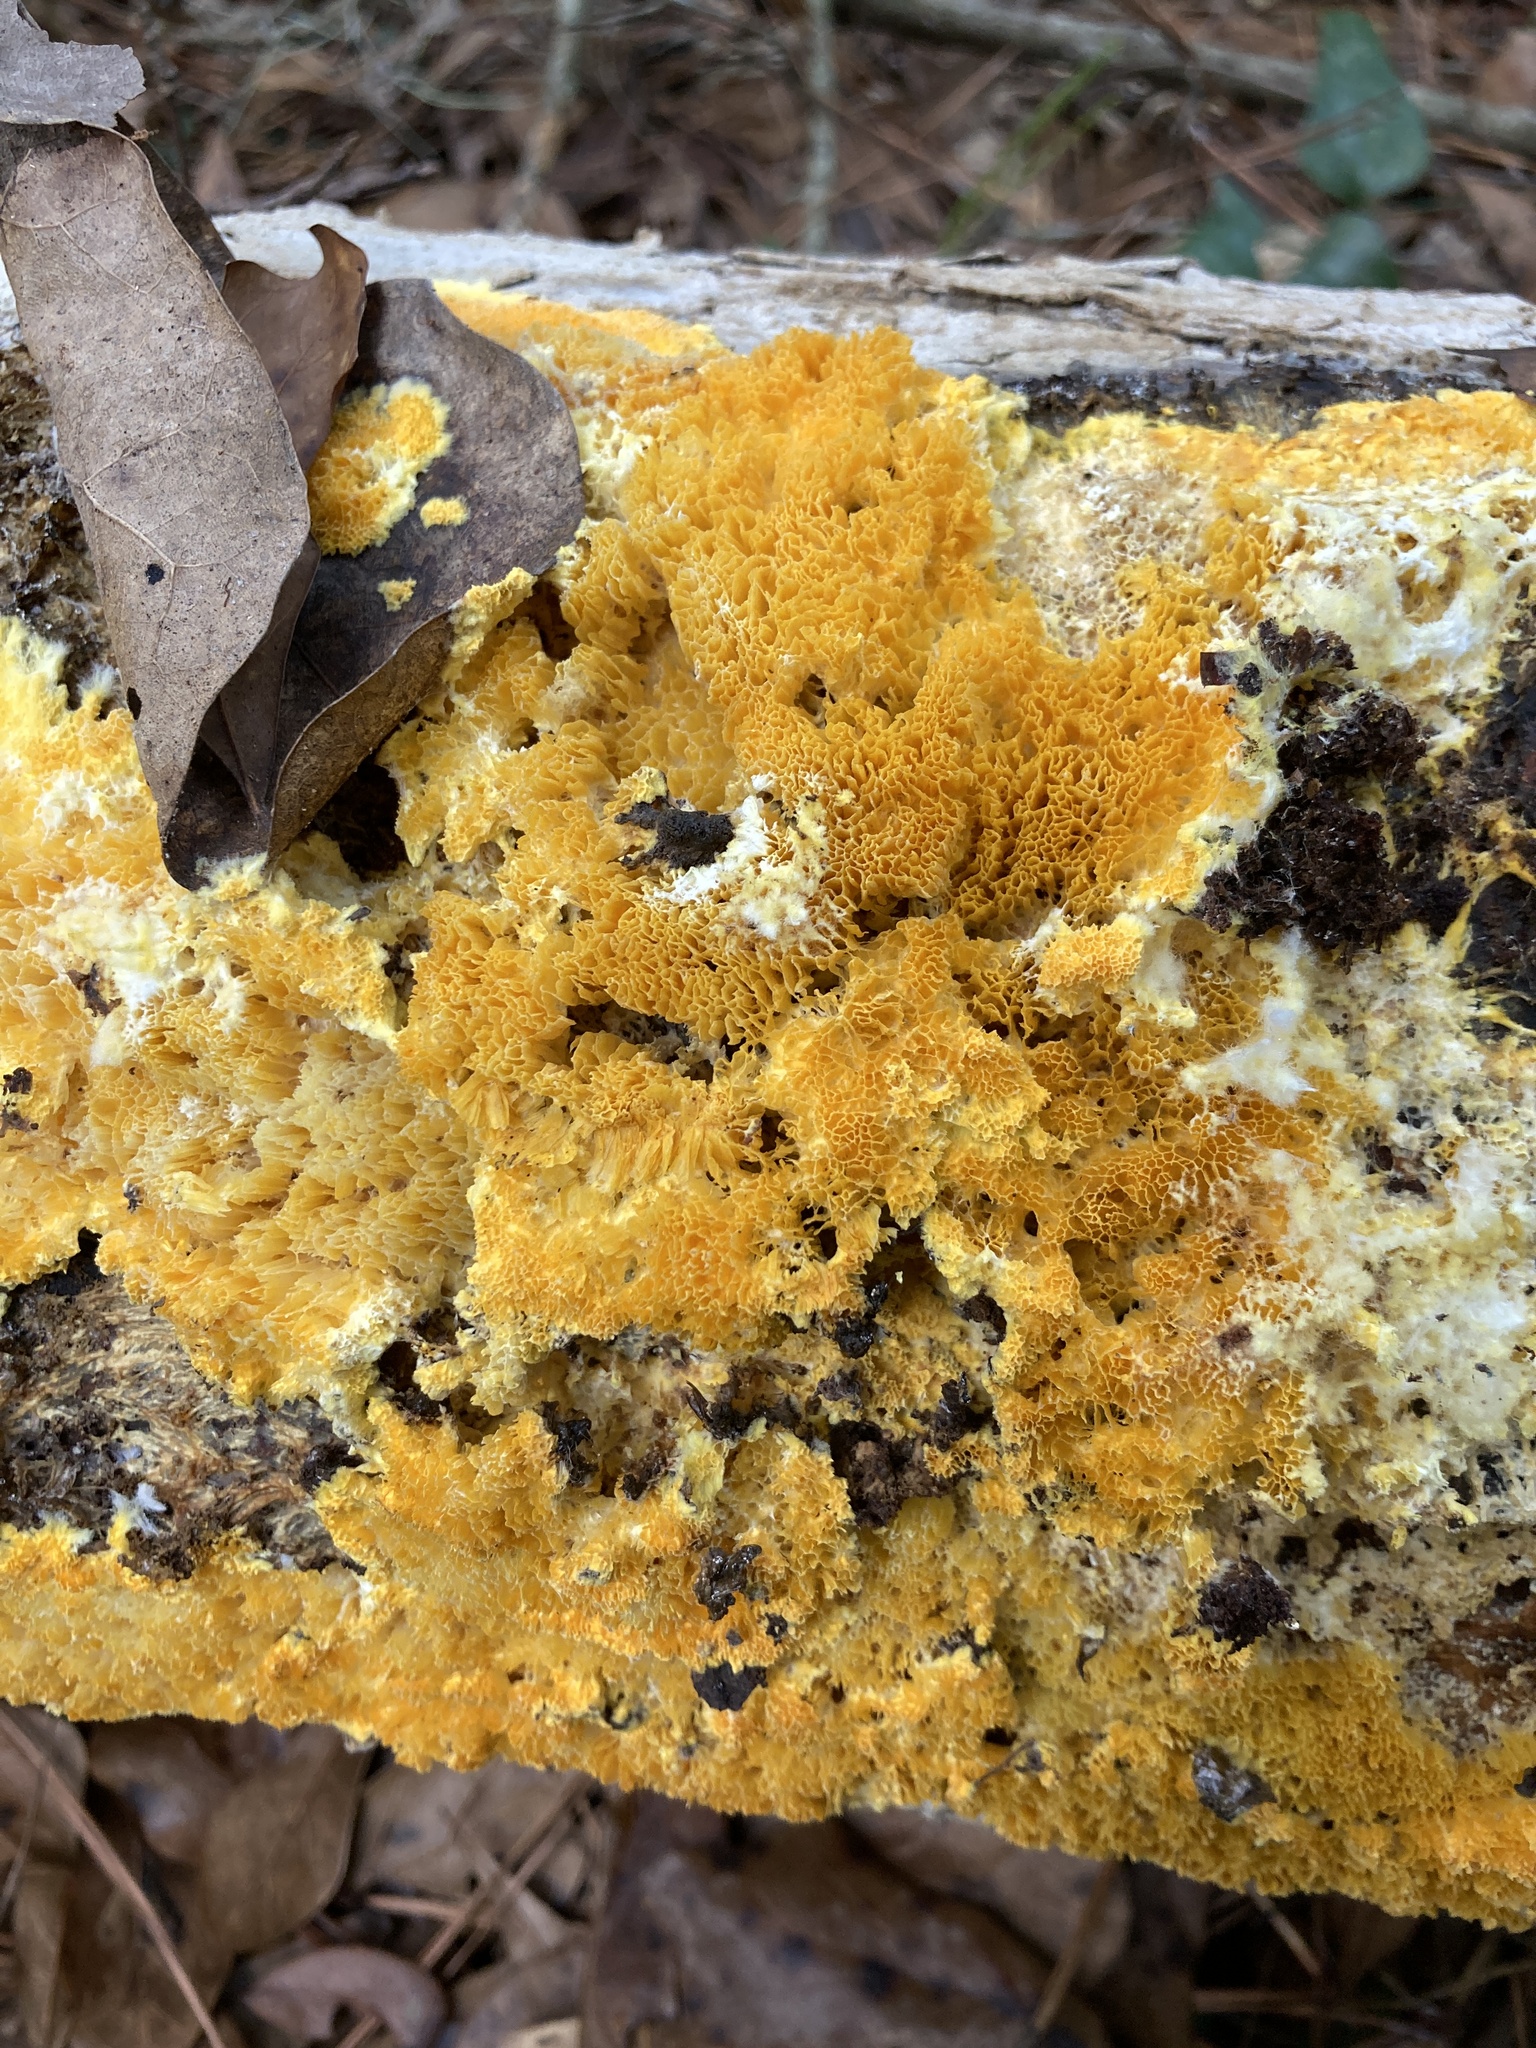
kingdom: Fungi
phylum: Basidiomycota
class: Agaricomycetes
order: Polyporales
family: Fibroporiaceae
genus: Fibroporia
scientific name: Fibroporia radiculosa
